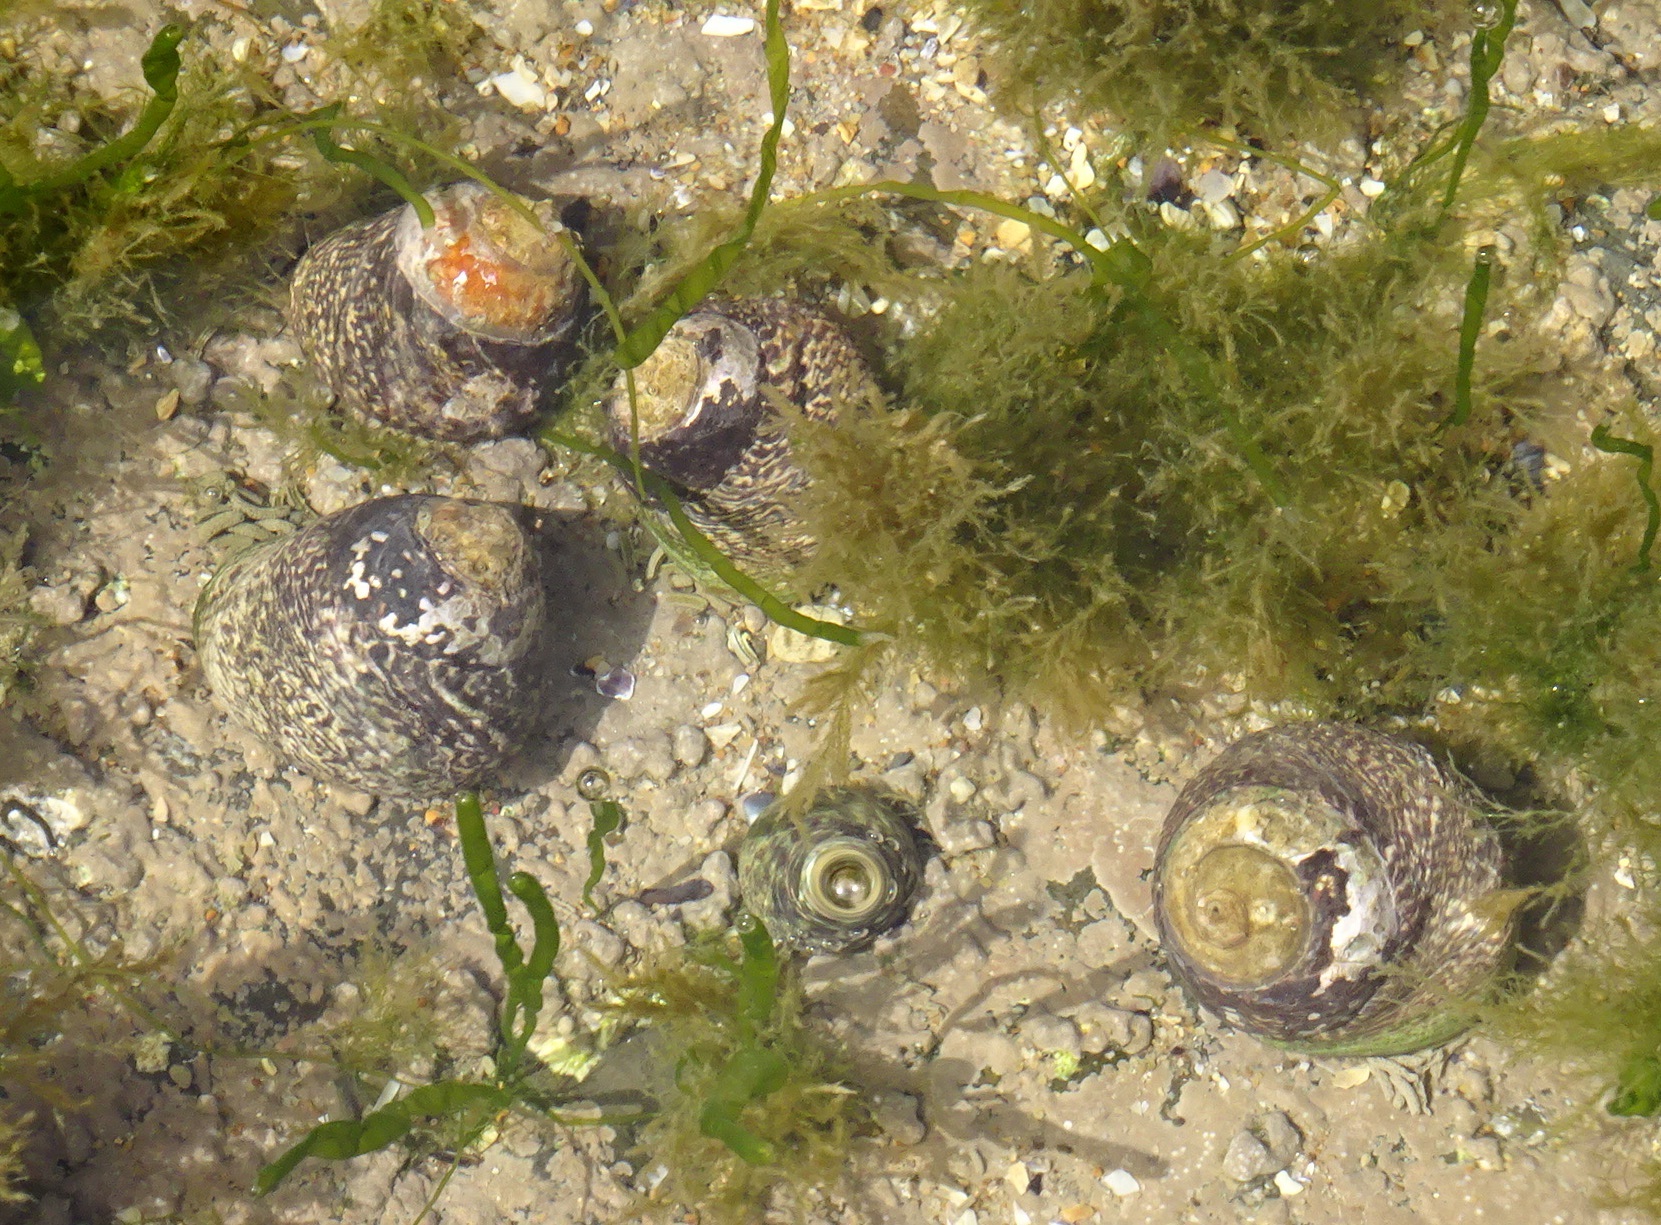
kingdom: Animalia
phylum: Mollusca
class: Gastropoda
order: Trochida
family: Trochidae
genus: Phorcus
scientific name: Phorcus lineatus
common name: Toothed top shell
